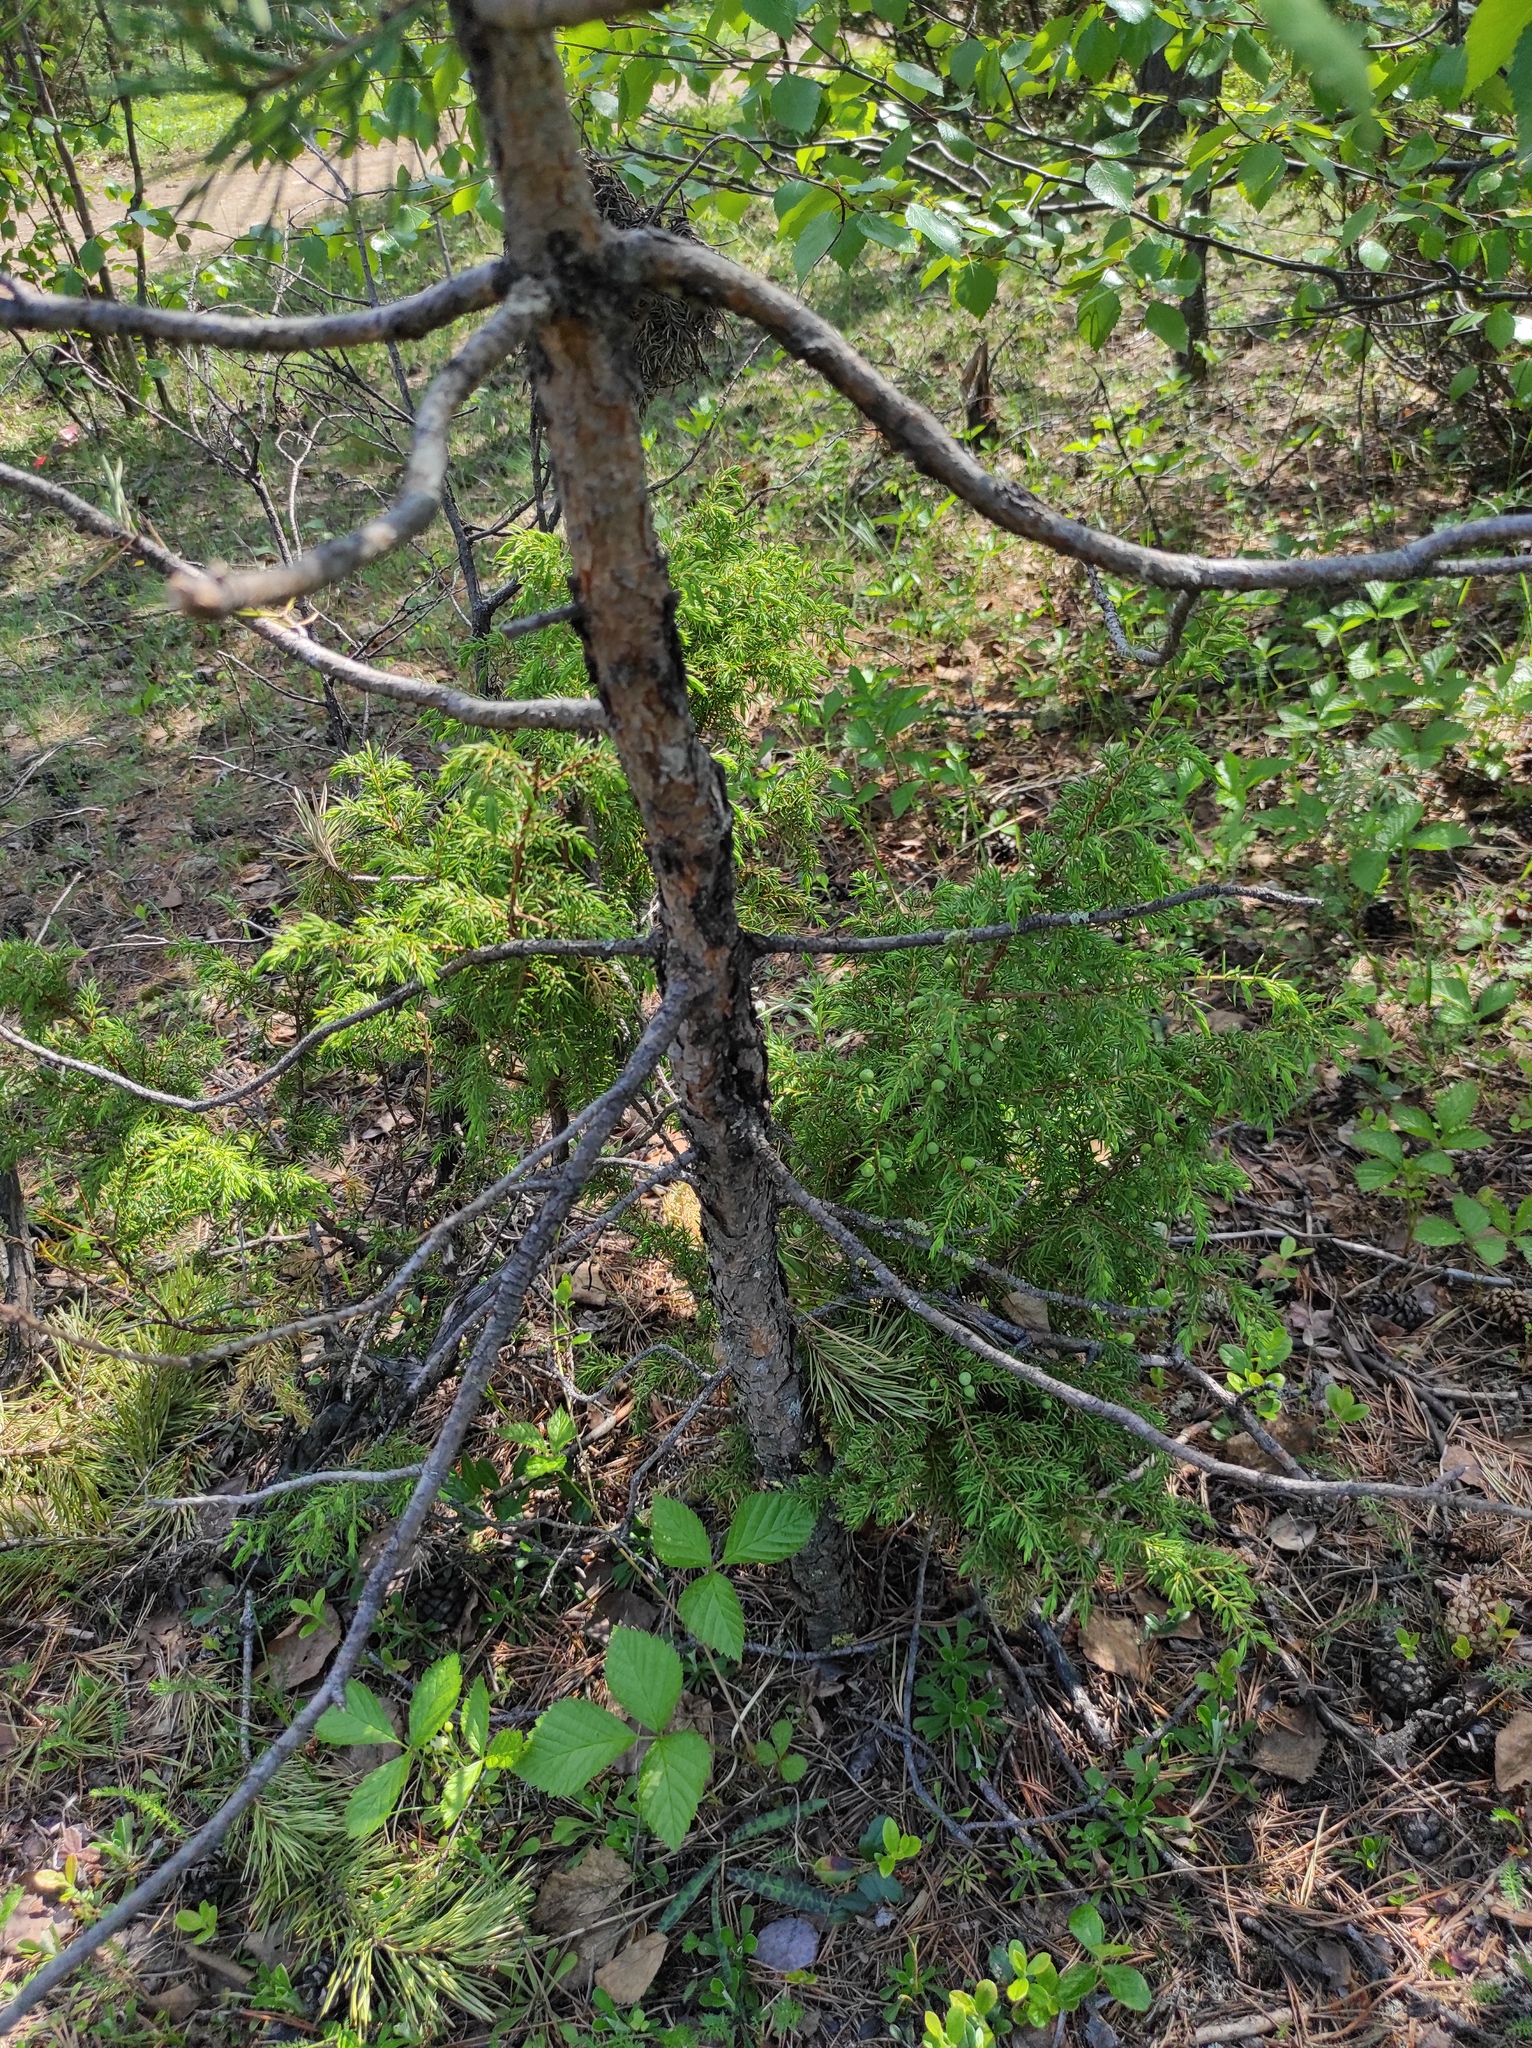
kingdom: Plantae
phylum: Tracheophyta
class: Pinopsida
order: Pinales
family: Pinaceae
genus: Pinus
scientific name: Pinus sylvestris
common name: Scots pine
